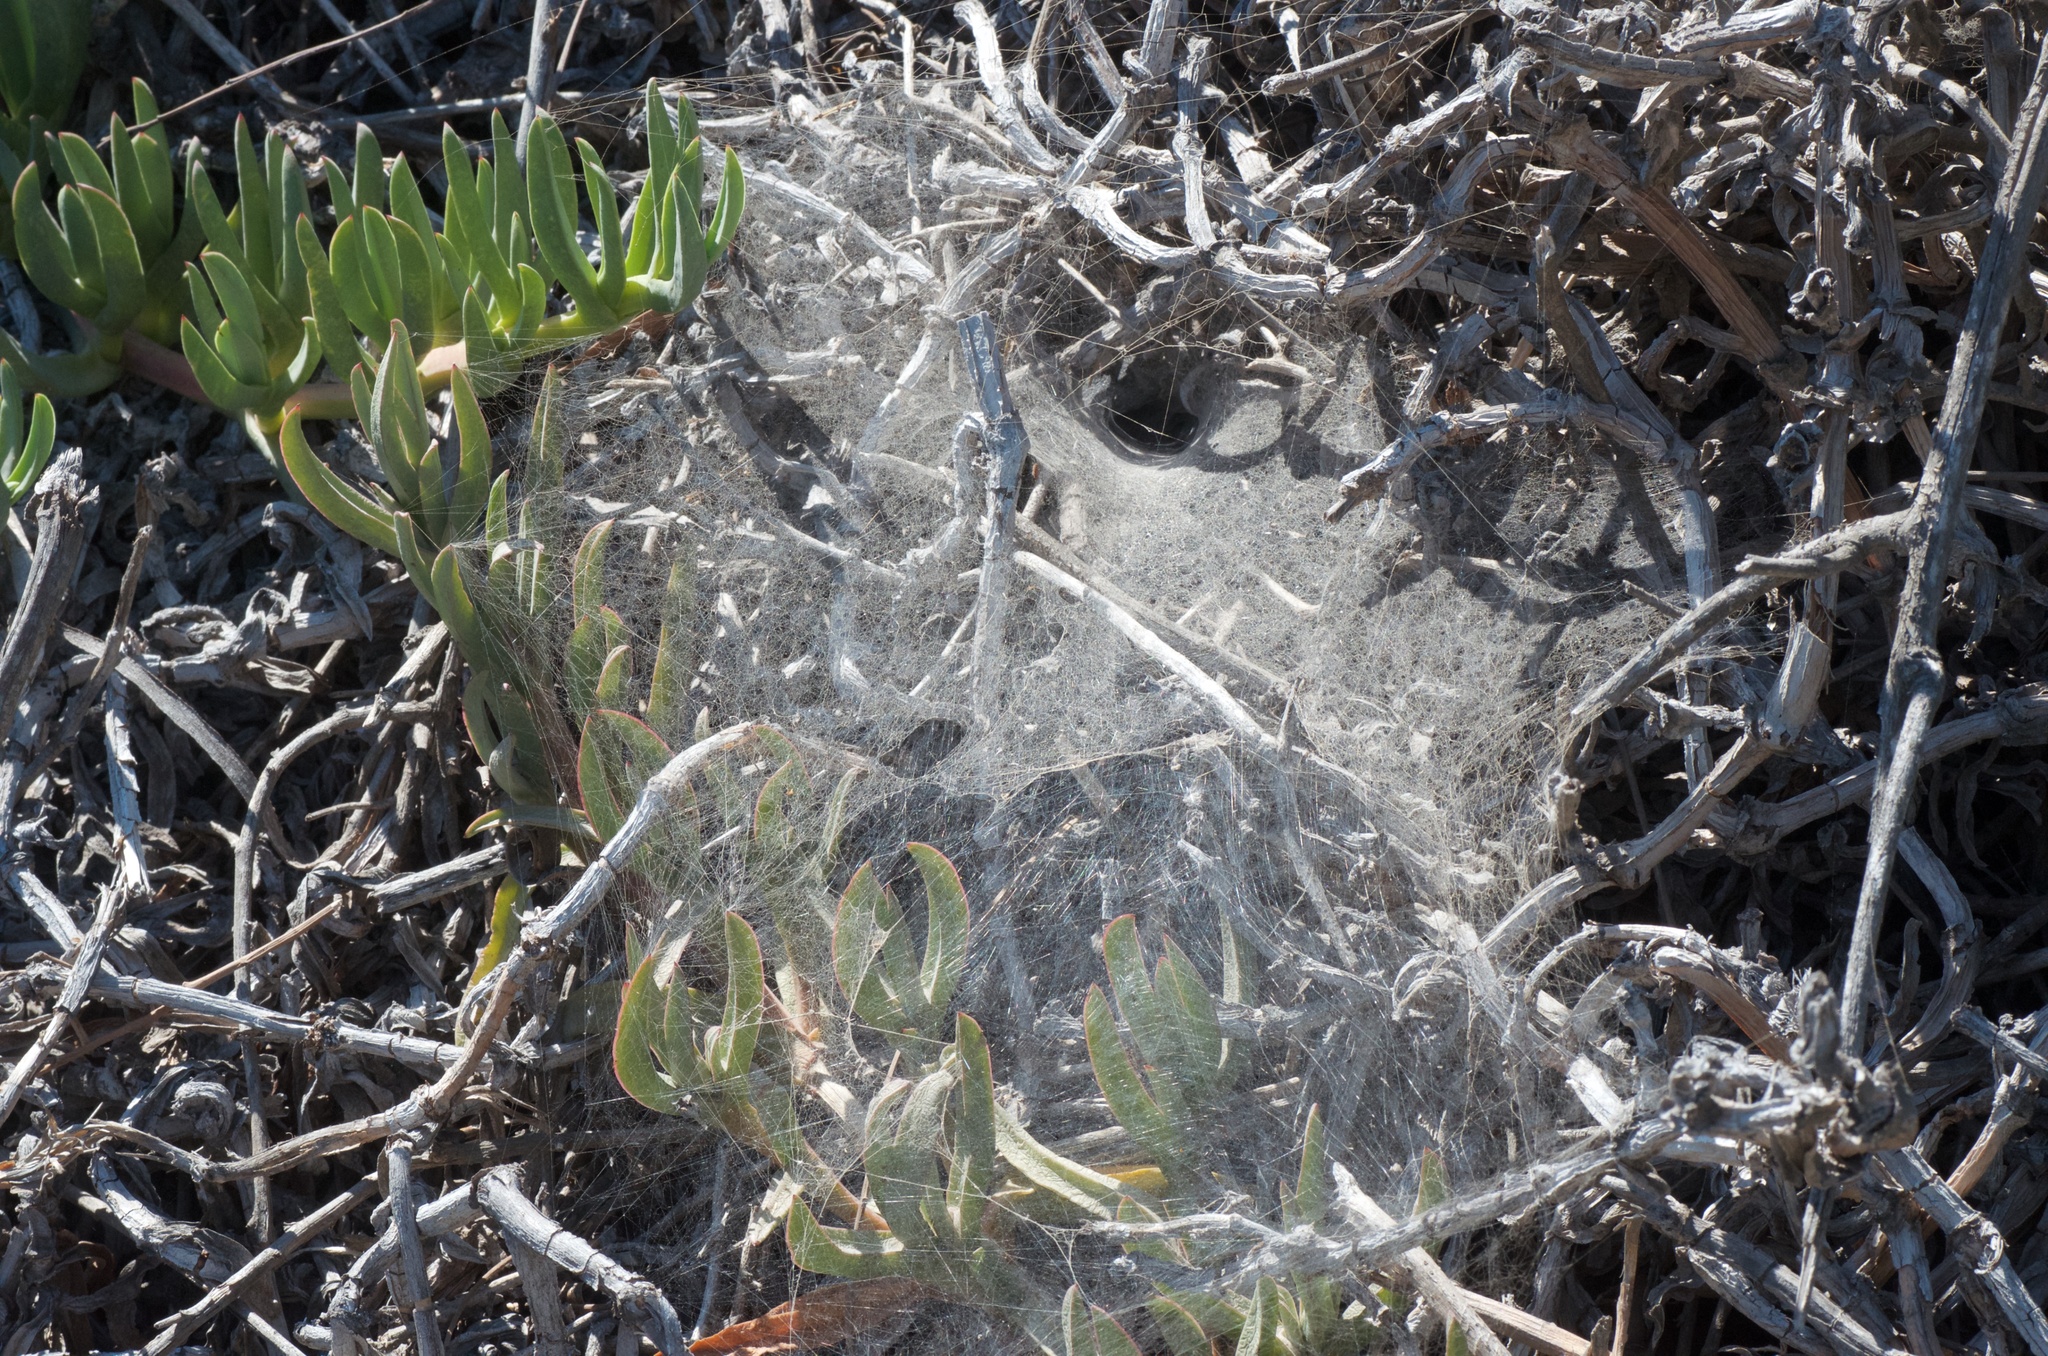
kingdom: Animalia
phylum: Arthropoda
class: Arachnida
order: Araneae
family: Agelenidae
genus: Agelenopsis
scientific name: Agelenopsis
